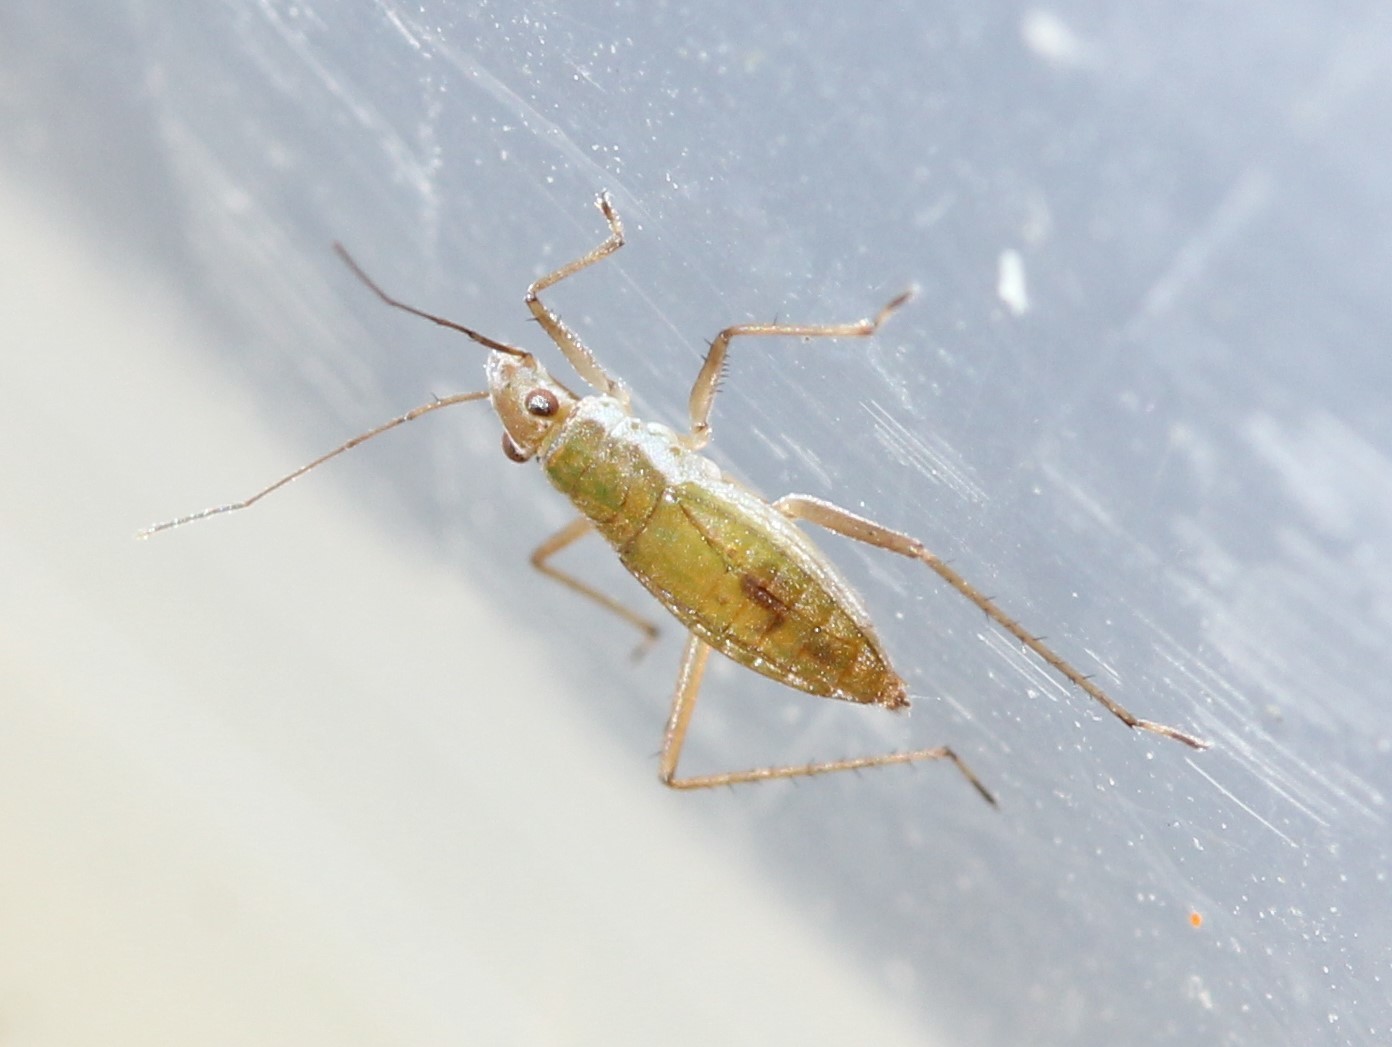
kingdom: Animalia
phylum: Arthropoda
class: Insecta
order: Hemiptera
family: Mesoveliidae
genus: Mesovelia
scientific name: Mesovelia mulsanti
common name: Water treaders
